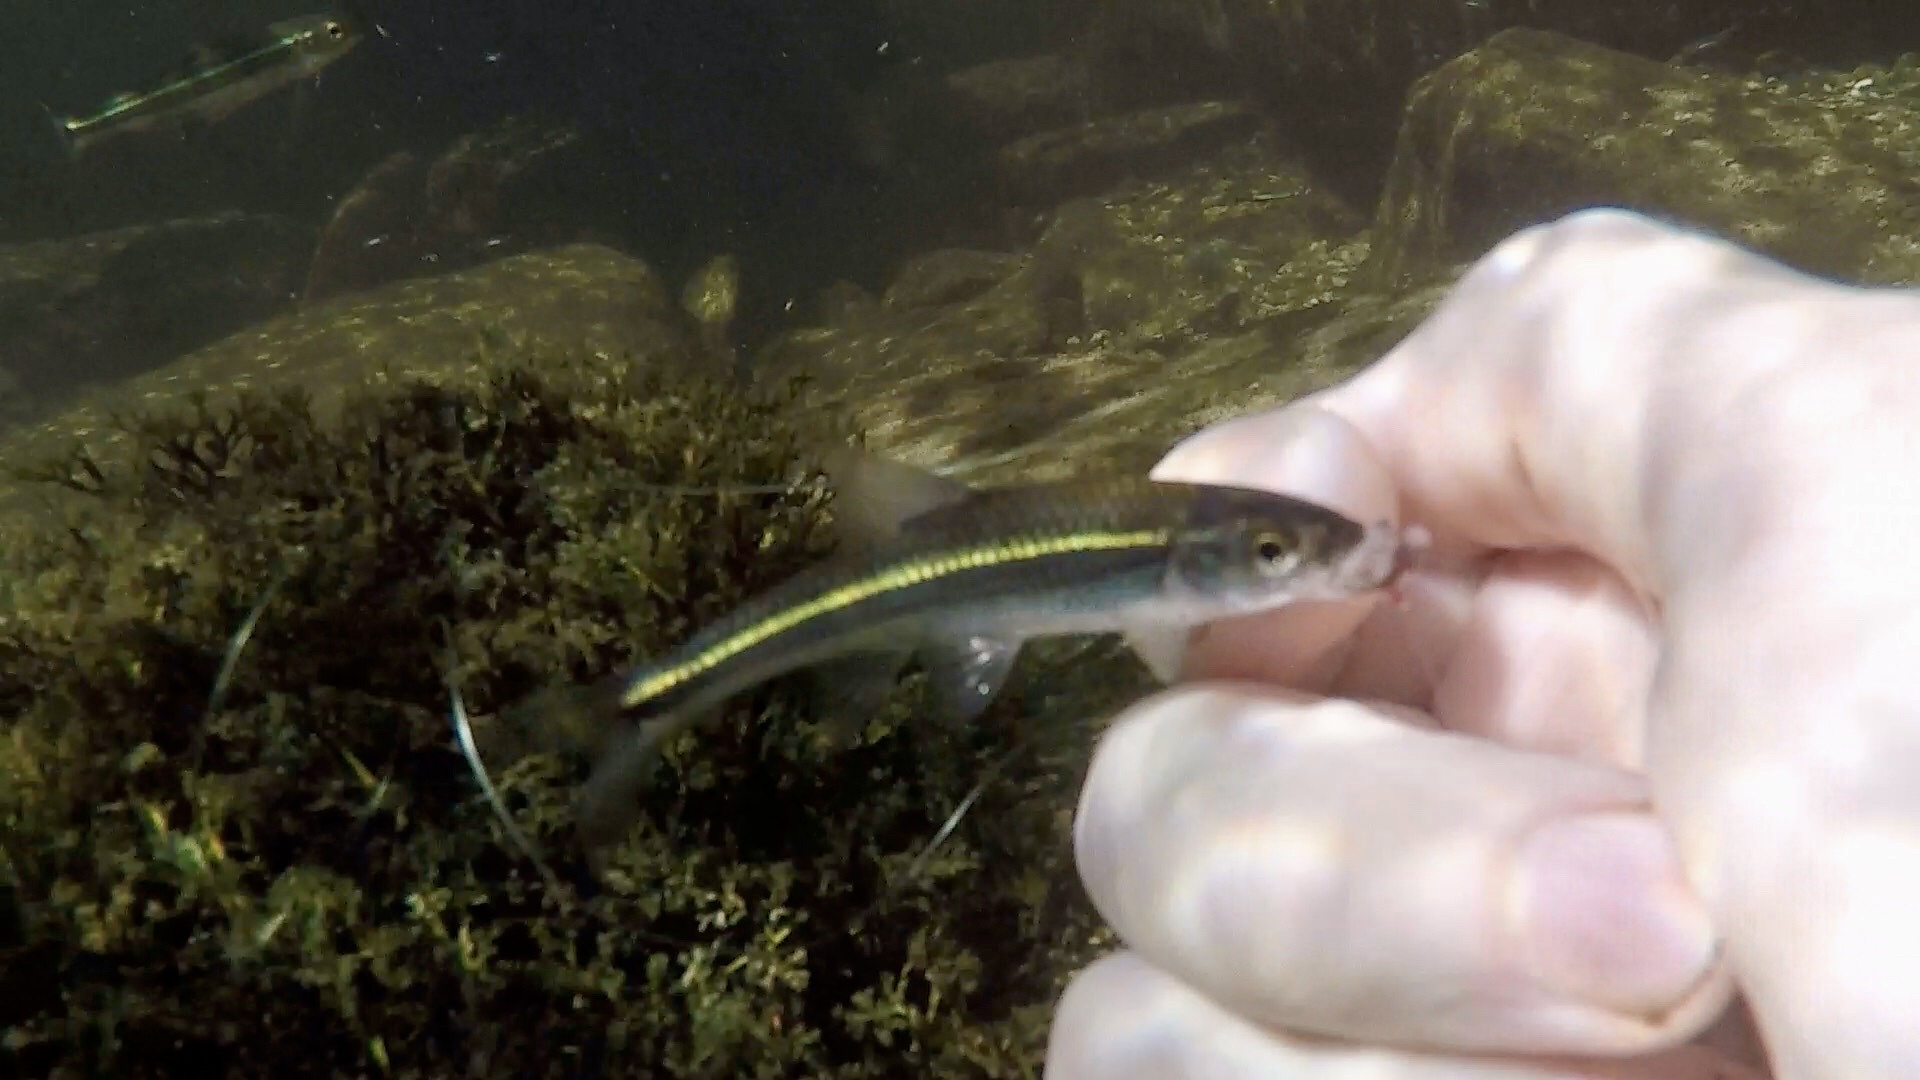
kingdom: Animalia
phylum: Chordata
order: Cypriniformes
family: Cyprinidae
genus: Notropis
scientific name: Notropis
